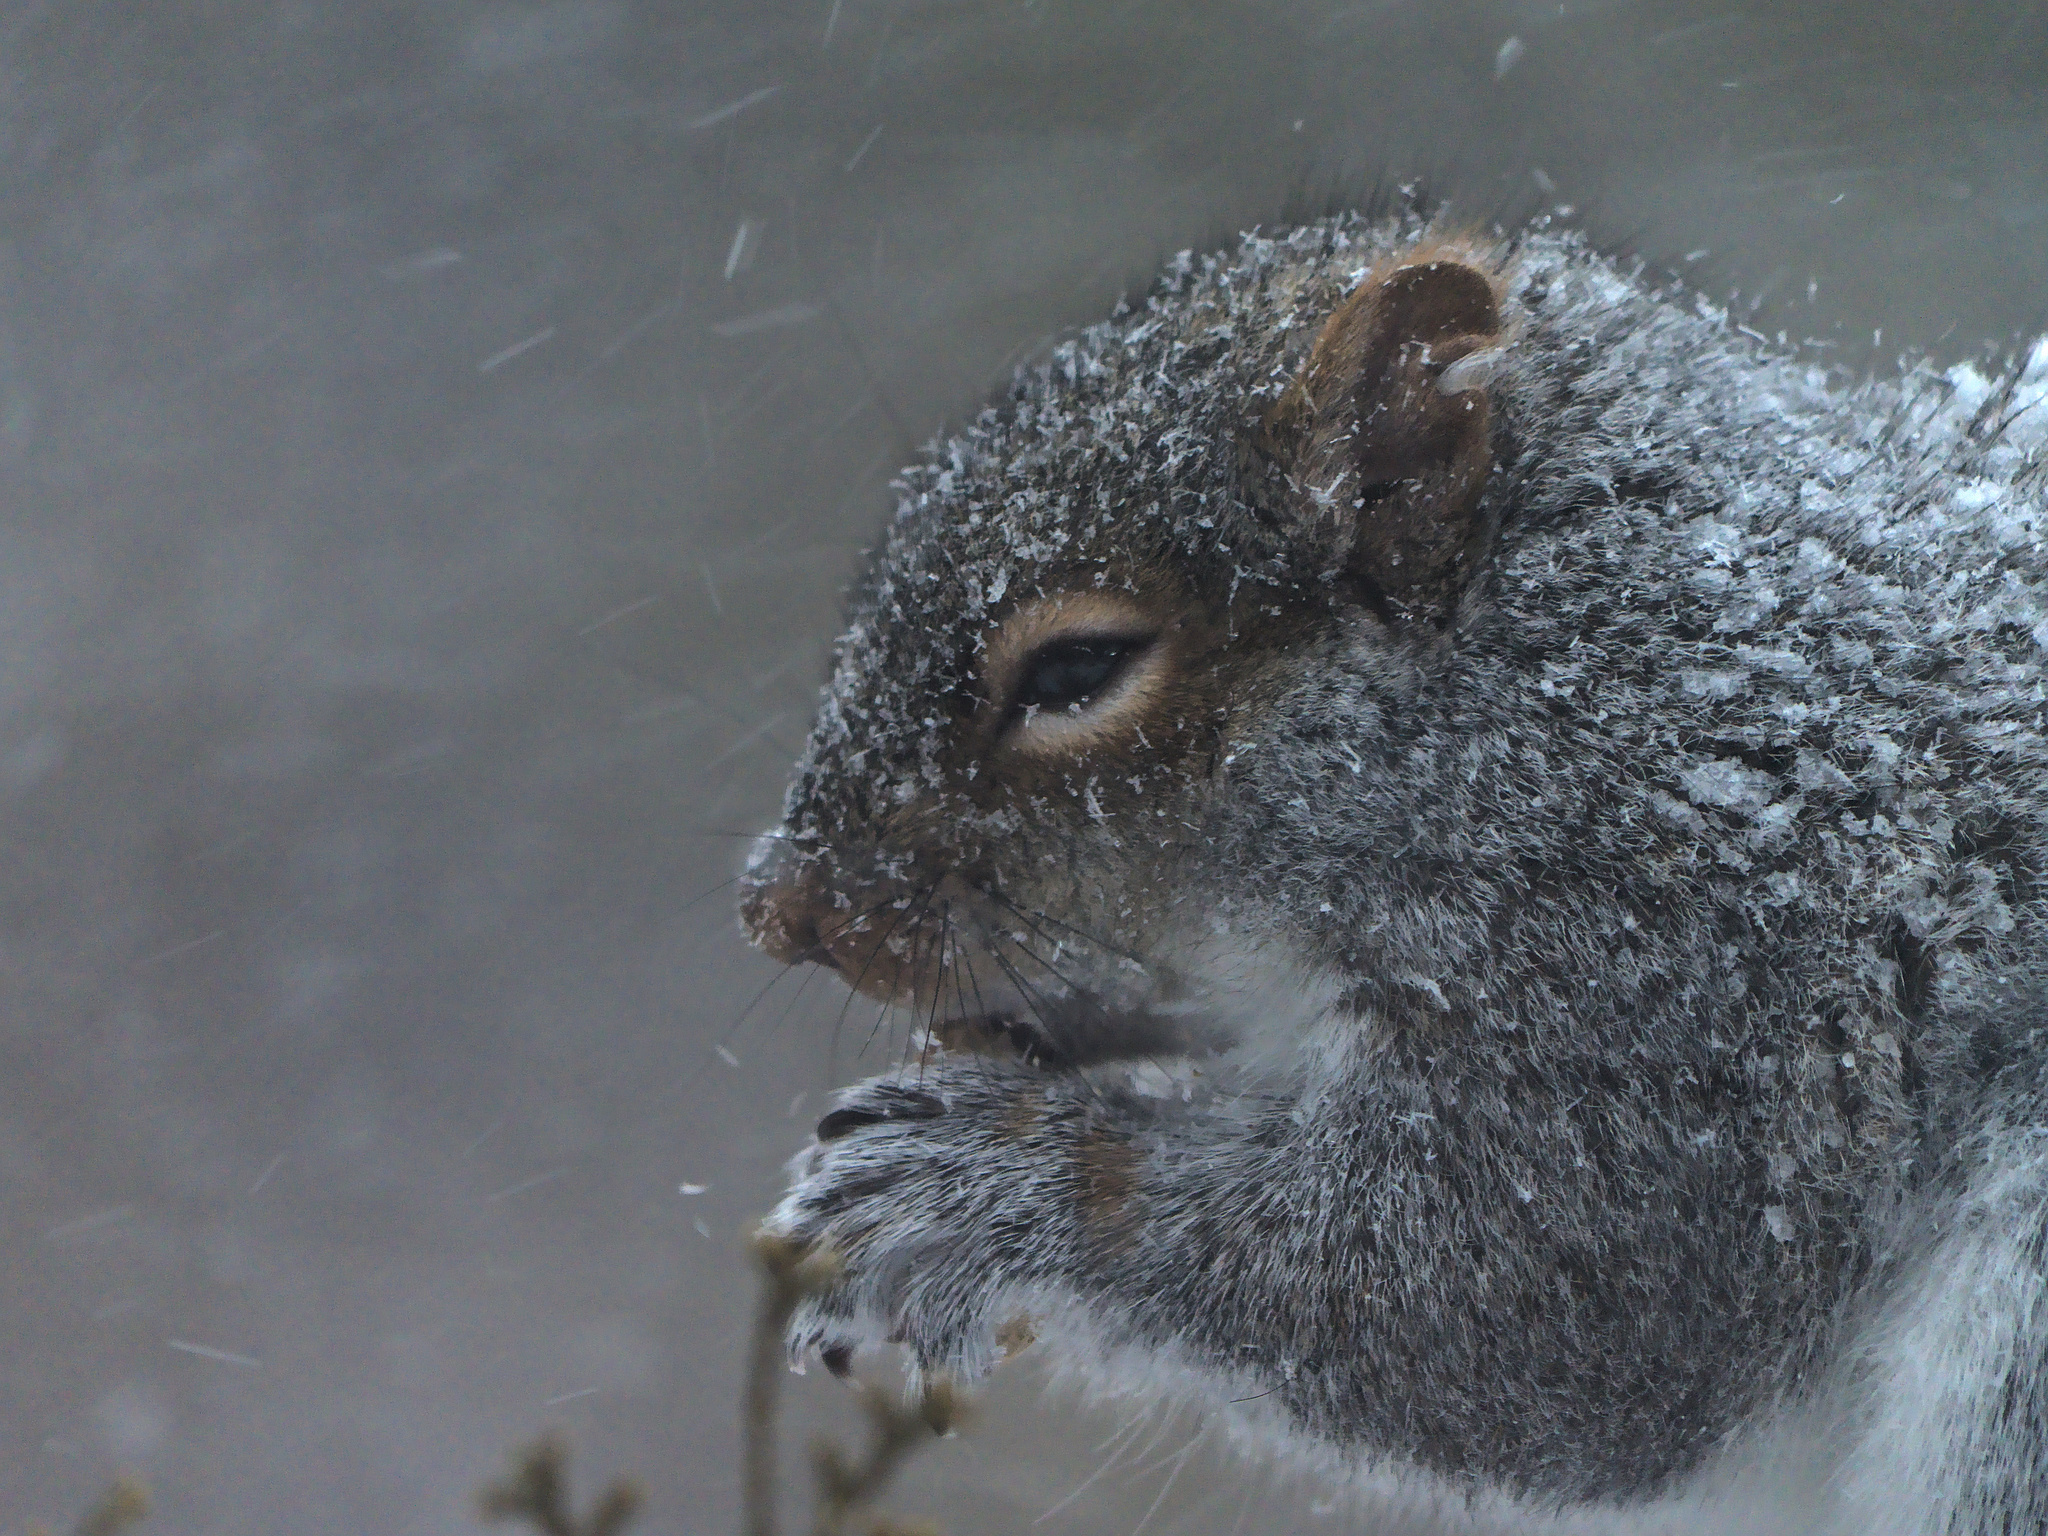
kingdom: Animalia
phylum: Chordata
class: Mammalia
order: Rodentia
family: Sciuridae
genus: Sciurus
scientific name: Sciurus carolinensis
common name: Eastern gray squirrel
